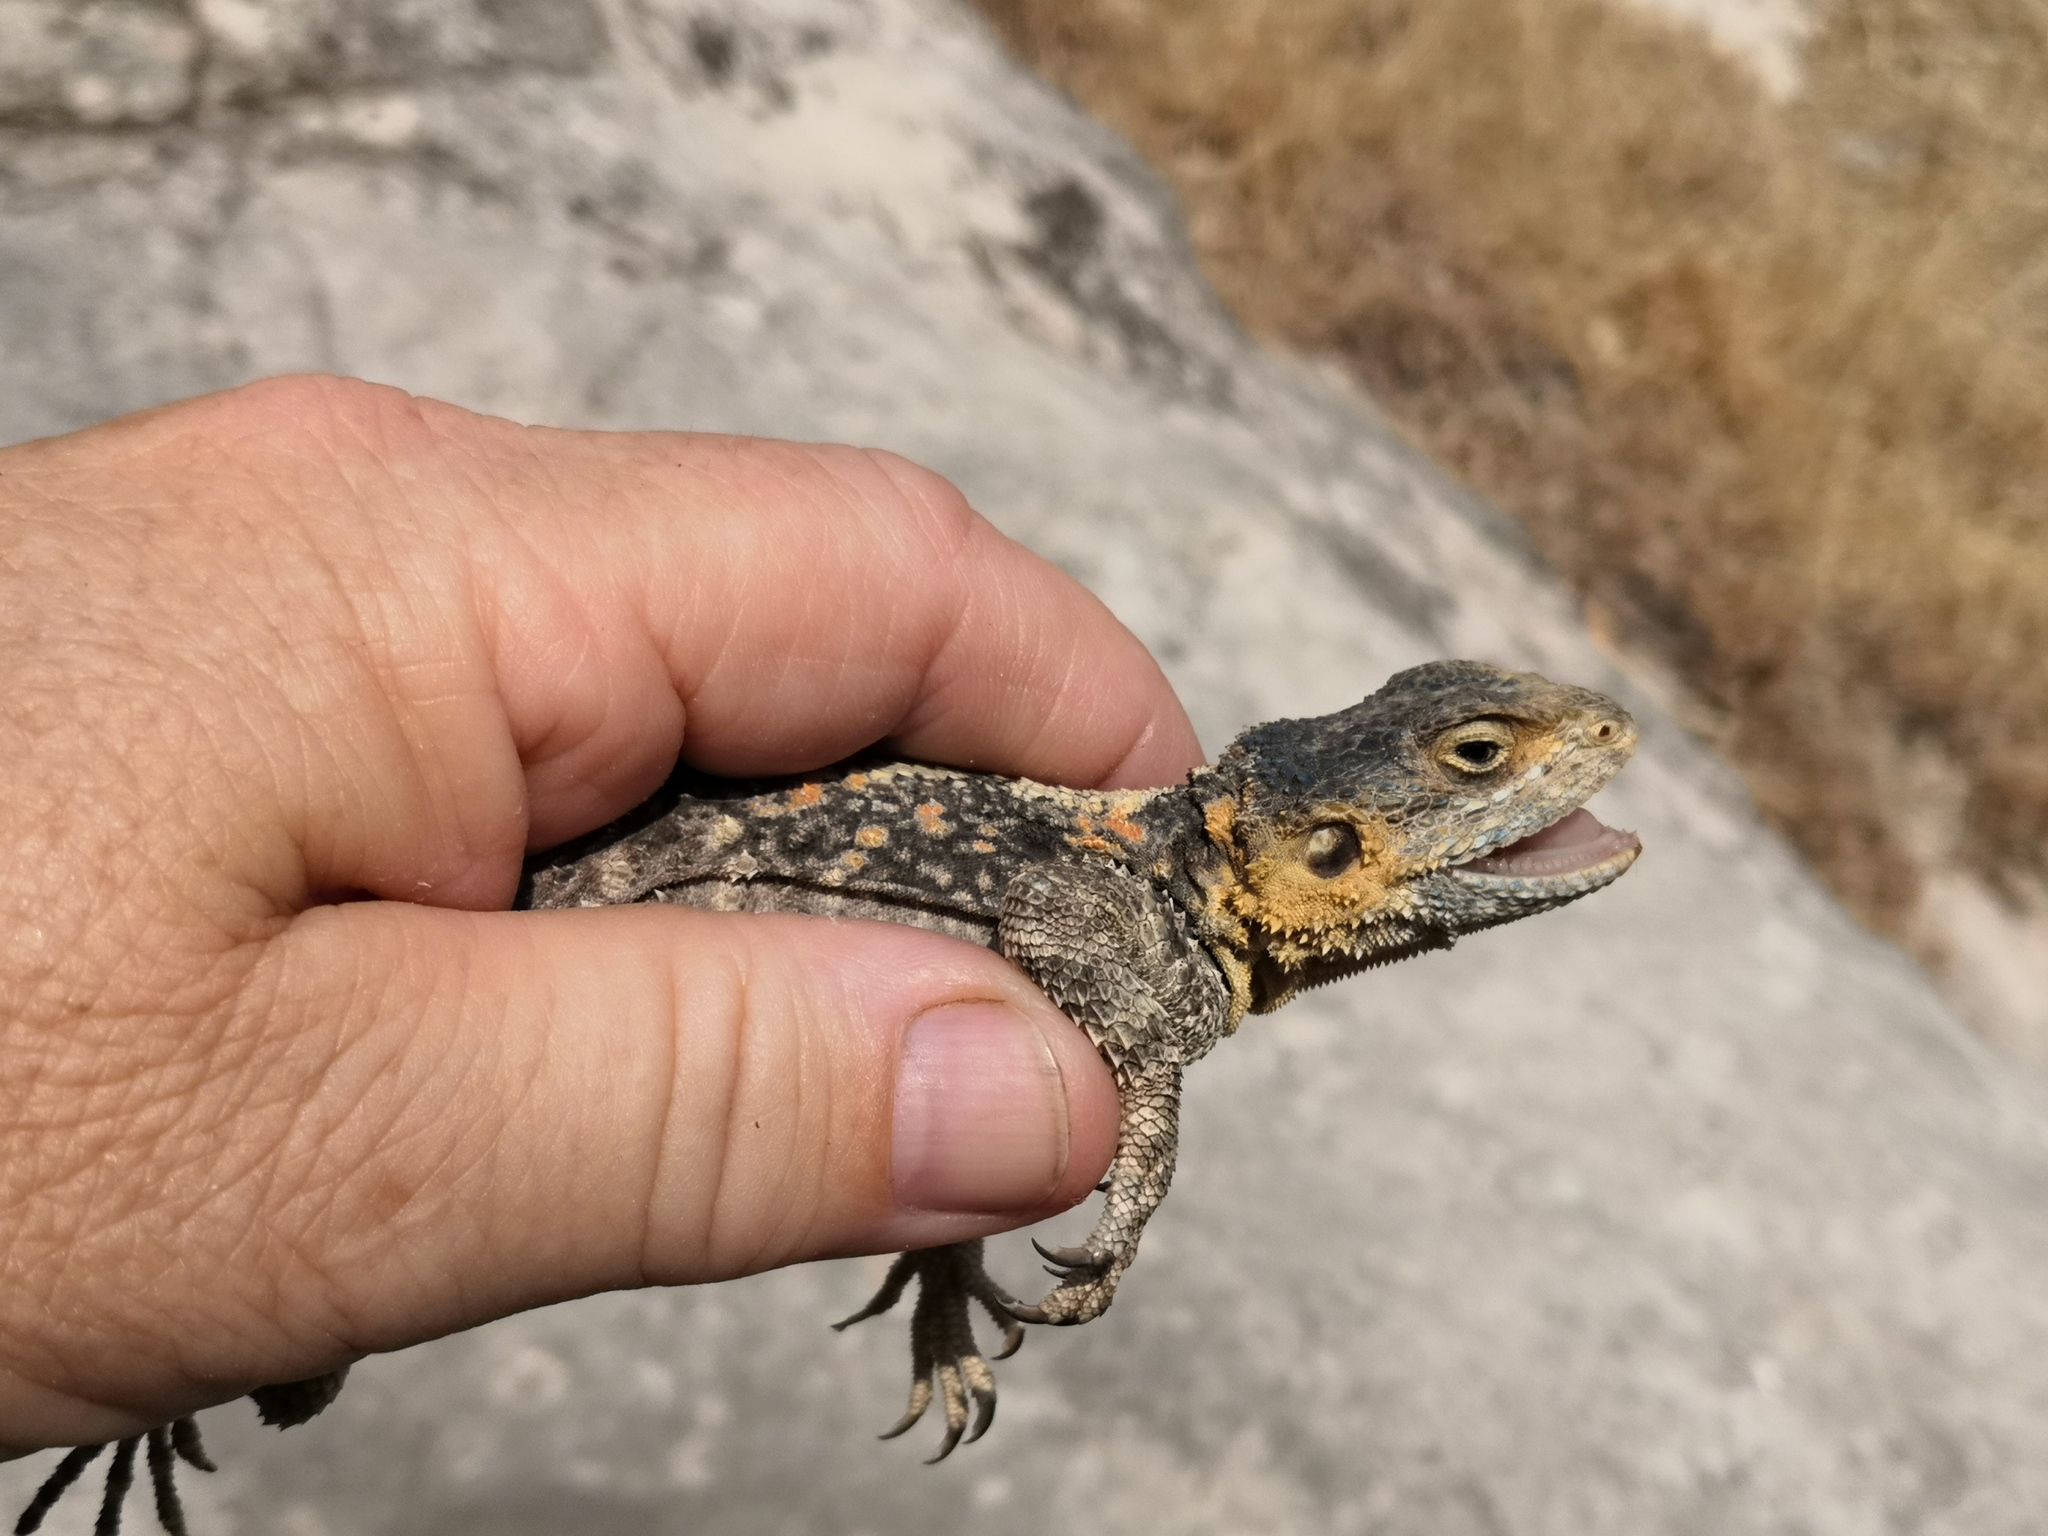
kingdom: Animalia
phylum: Chordata
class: Squamata
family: Agamidae
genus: Stellagama
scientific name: Stellagama stellio
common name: Starred agama
